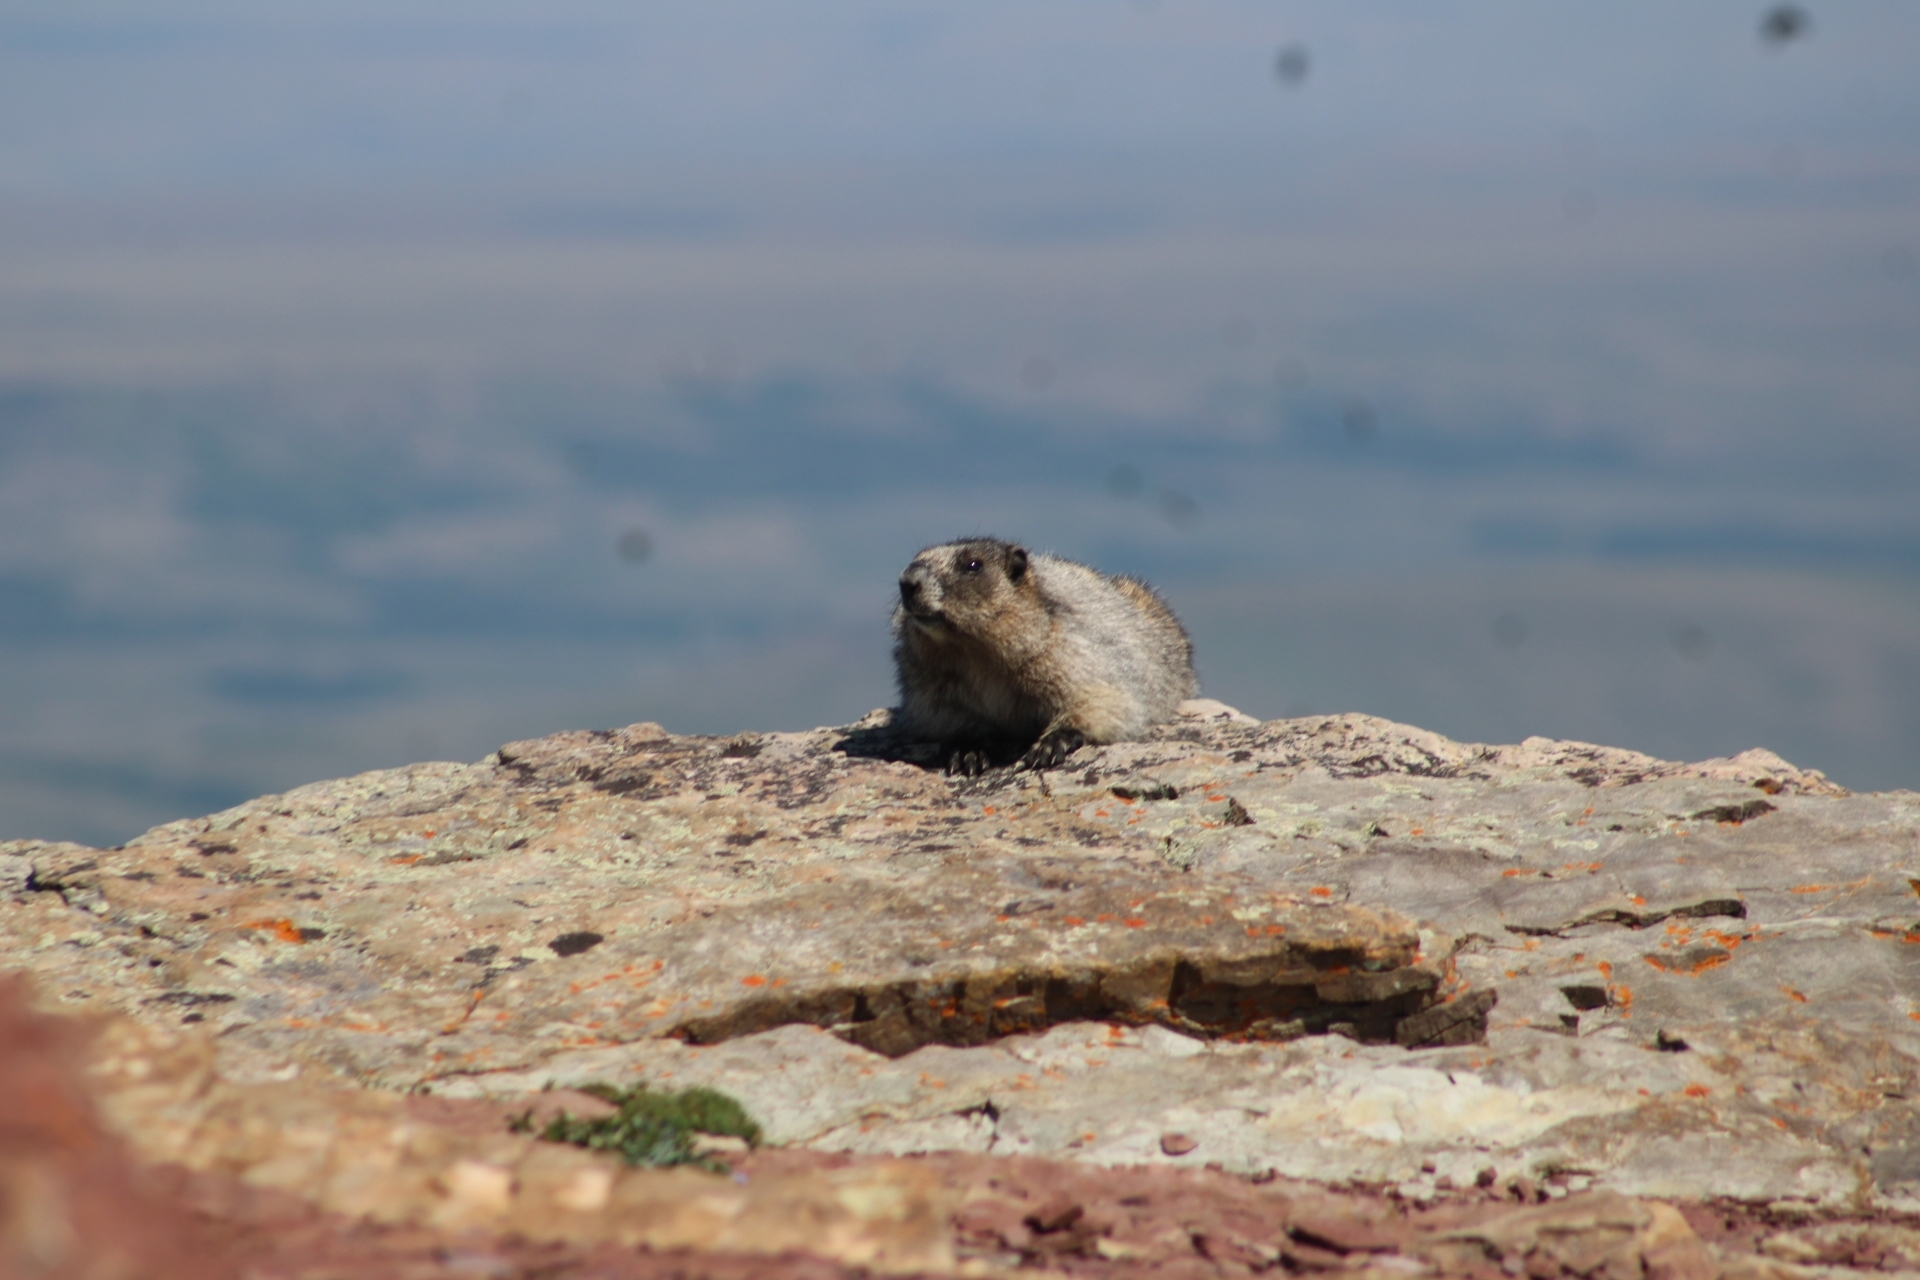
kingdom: Animalia
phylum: Chordata
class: Mammalia
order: Rodentia
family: Sciuridae
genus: Marmota
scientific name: Marmota caligata
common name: Hoary marmot
